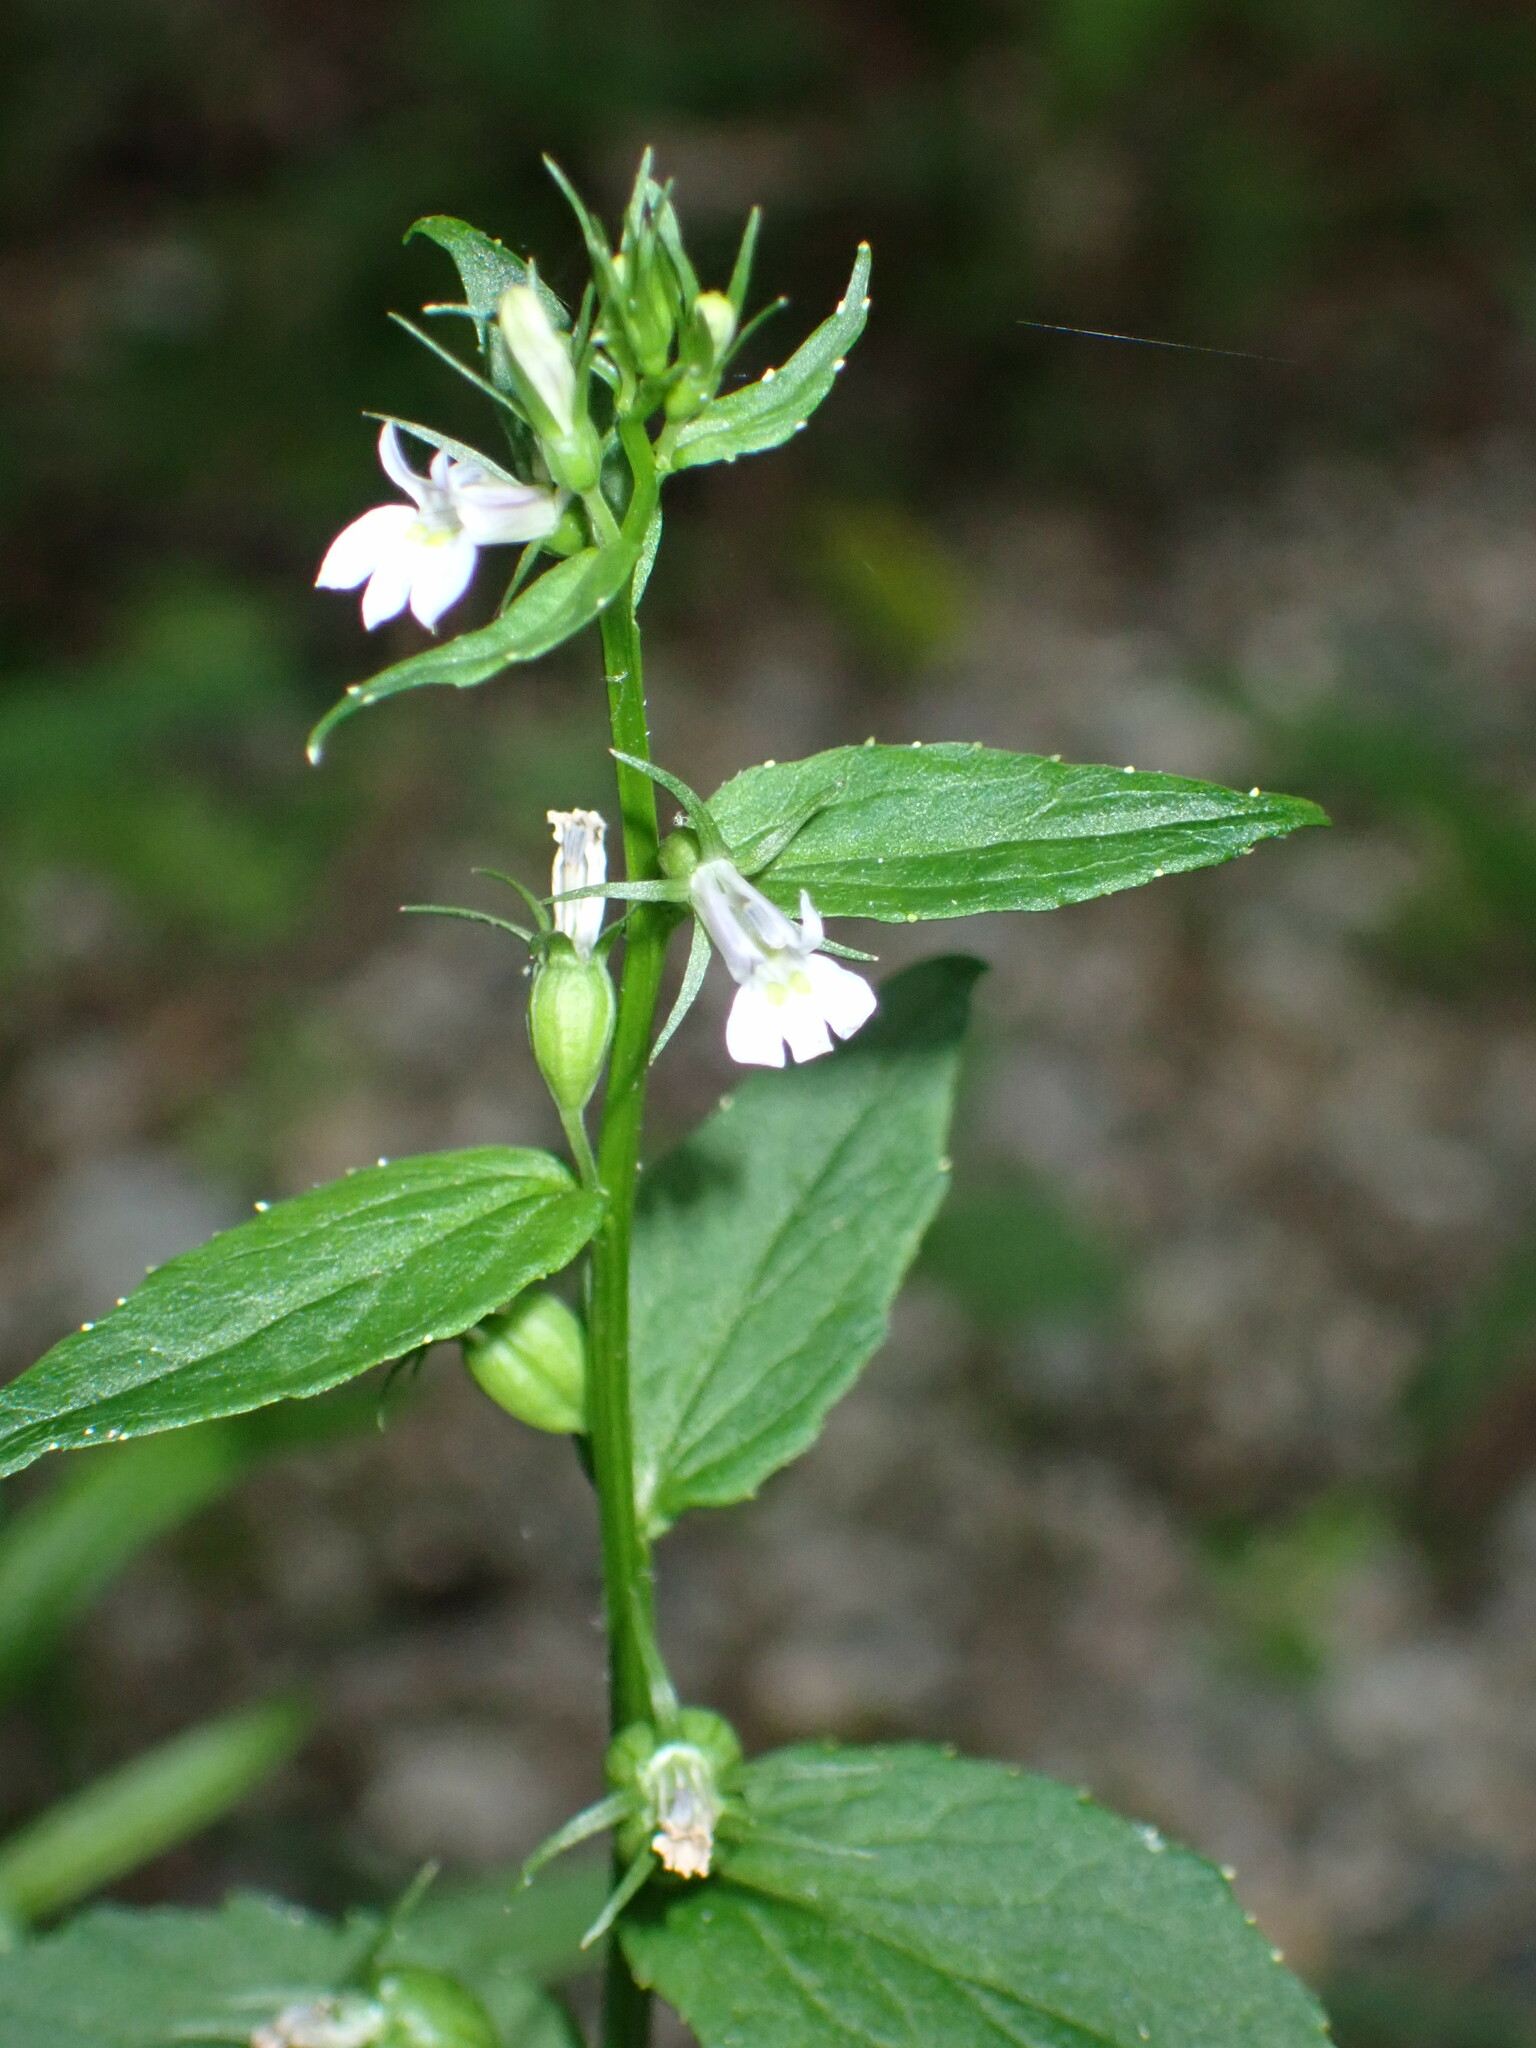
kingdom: Plantae
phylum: Tracheophyta
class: Magnoliopsida
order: Asterales
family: Campanulaceae
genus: Lobelia
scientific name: Lobelia inflata
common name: Indian tobacco
